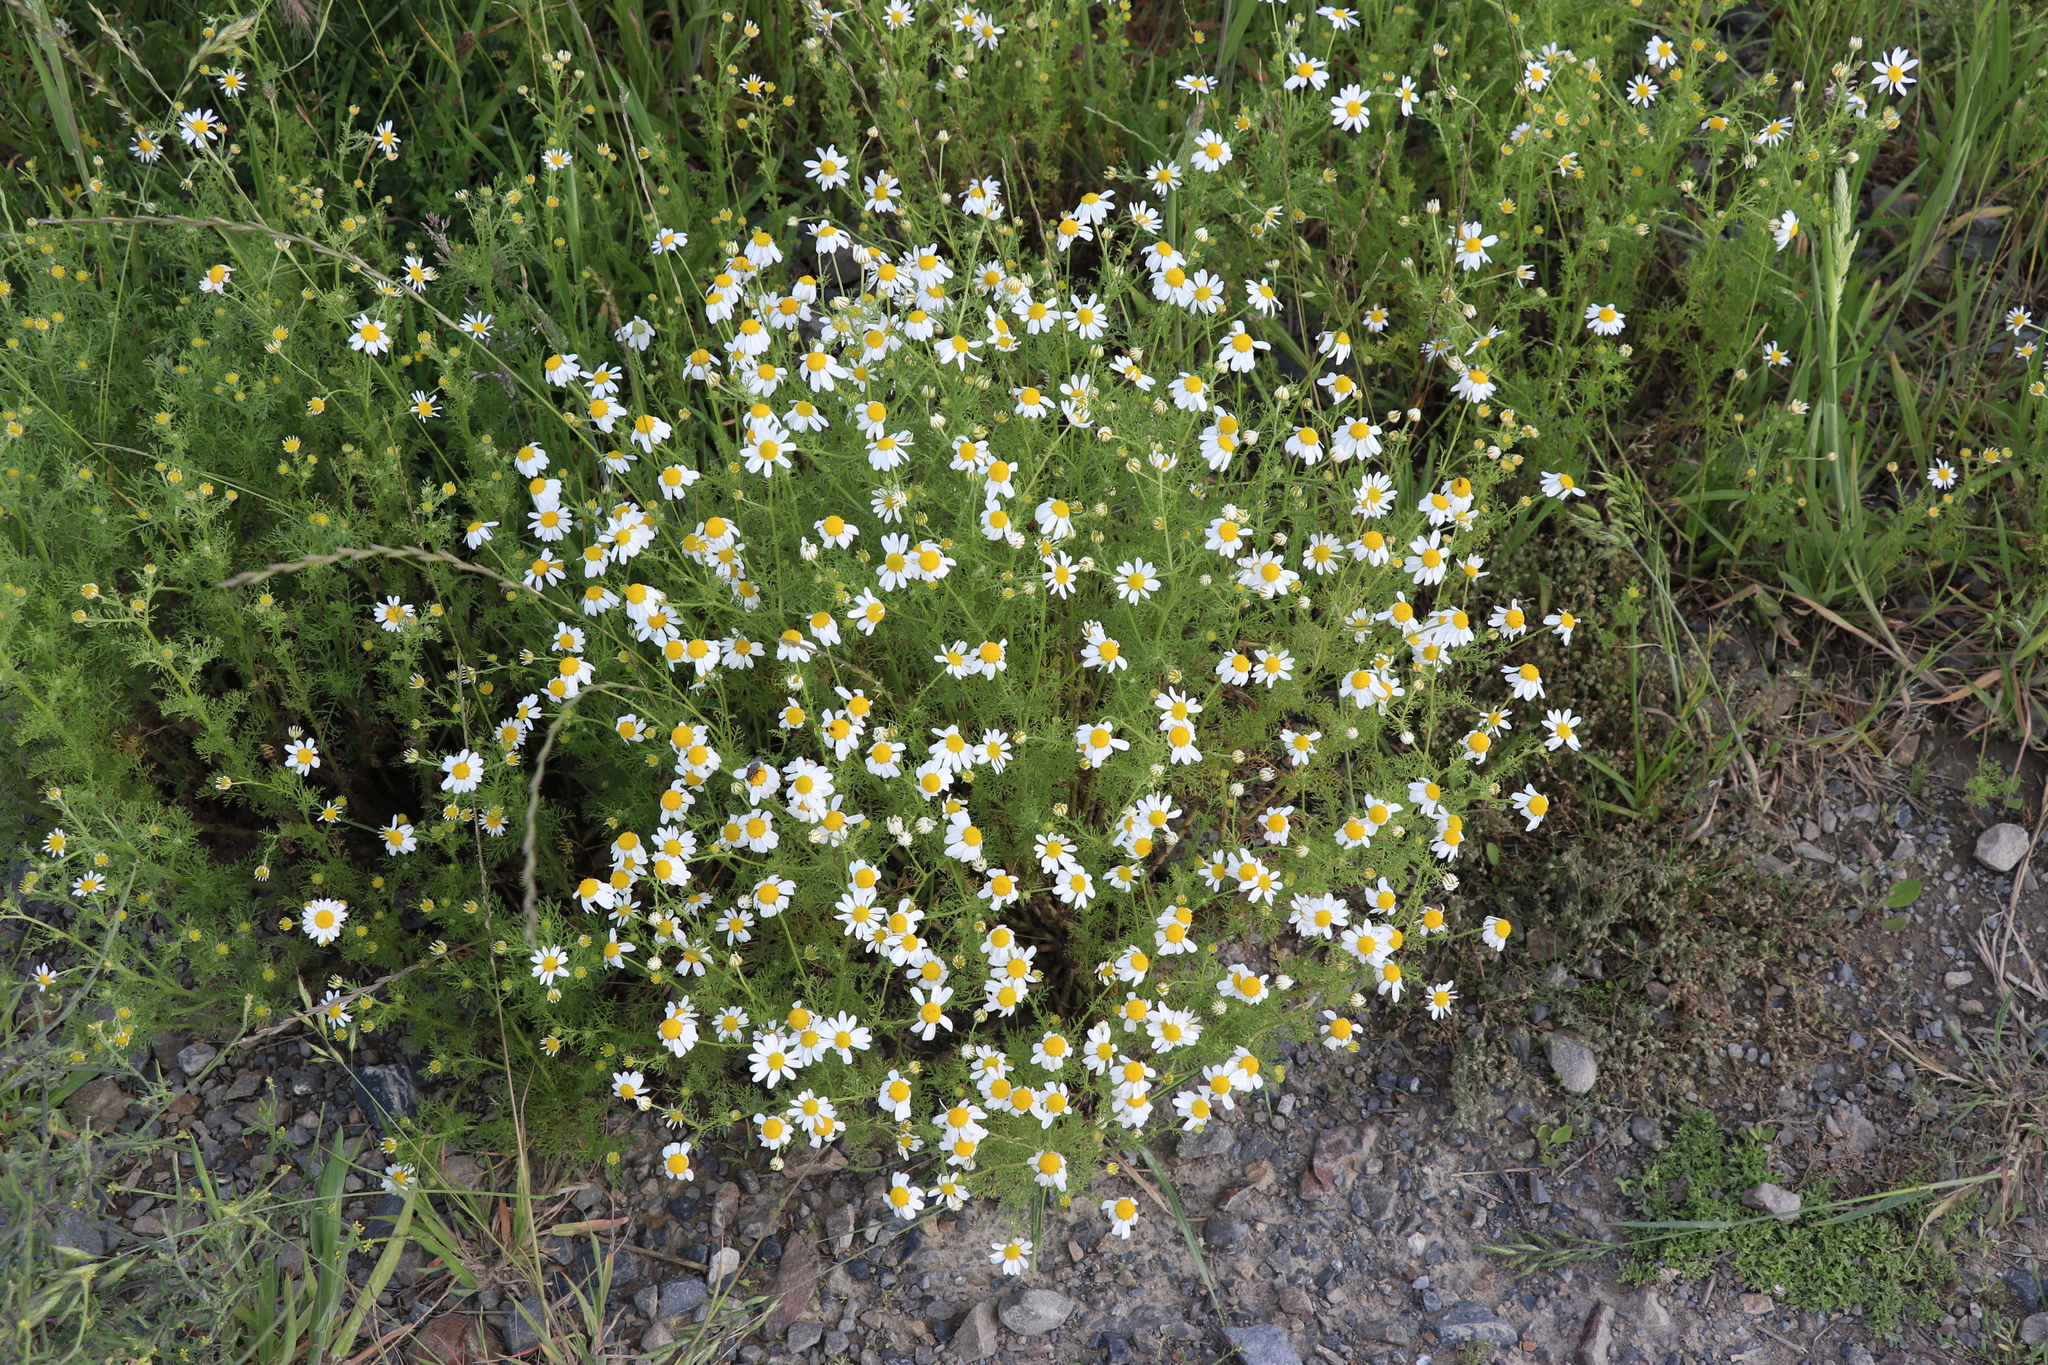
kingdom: Plantae
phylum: Tracheophyta
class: Magnoliopsida
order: Asterales
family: Asteraceae
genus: Tripleurospermum
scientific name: Tripleurospermum inodorum
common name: Scentless mayweed
